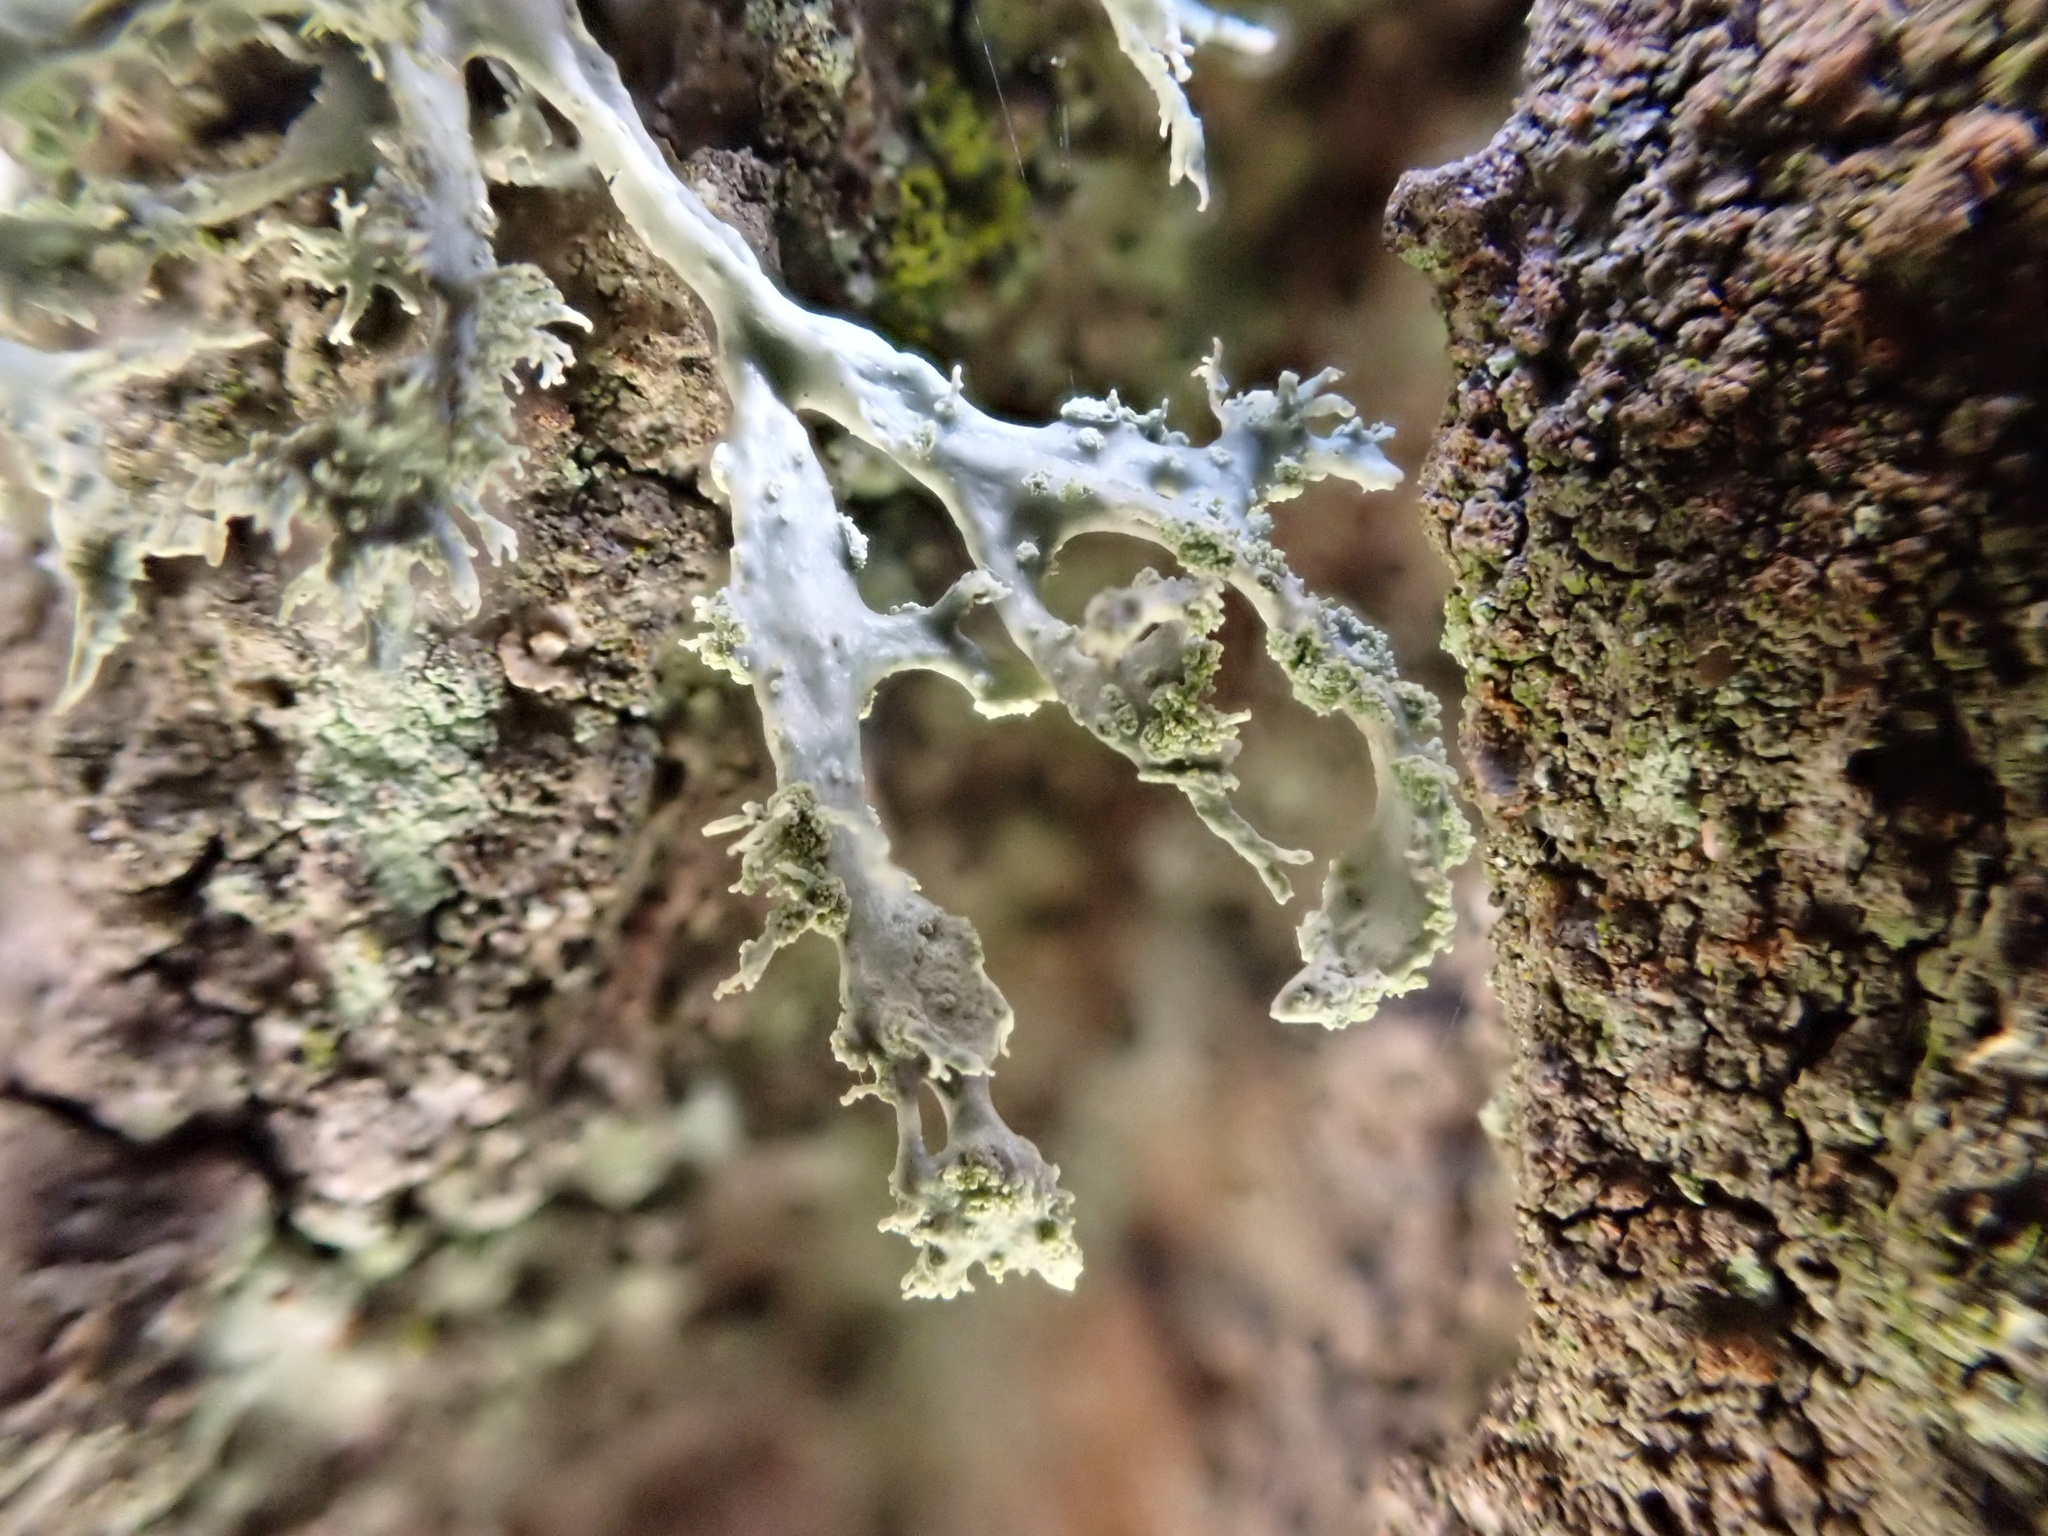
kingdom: Fungi
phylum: Ascomycota
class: Lecanoromycetes
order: Lecanorales
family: Ramalinaceae
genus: Ramalina
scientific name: Ramalina farinacea
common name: Farinose cartilage lichen
